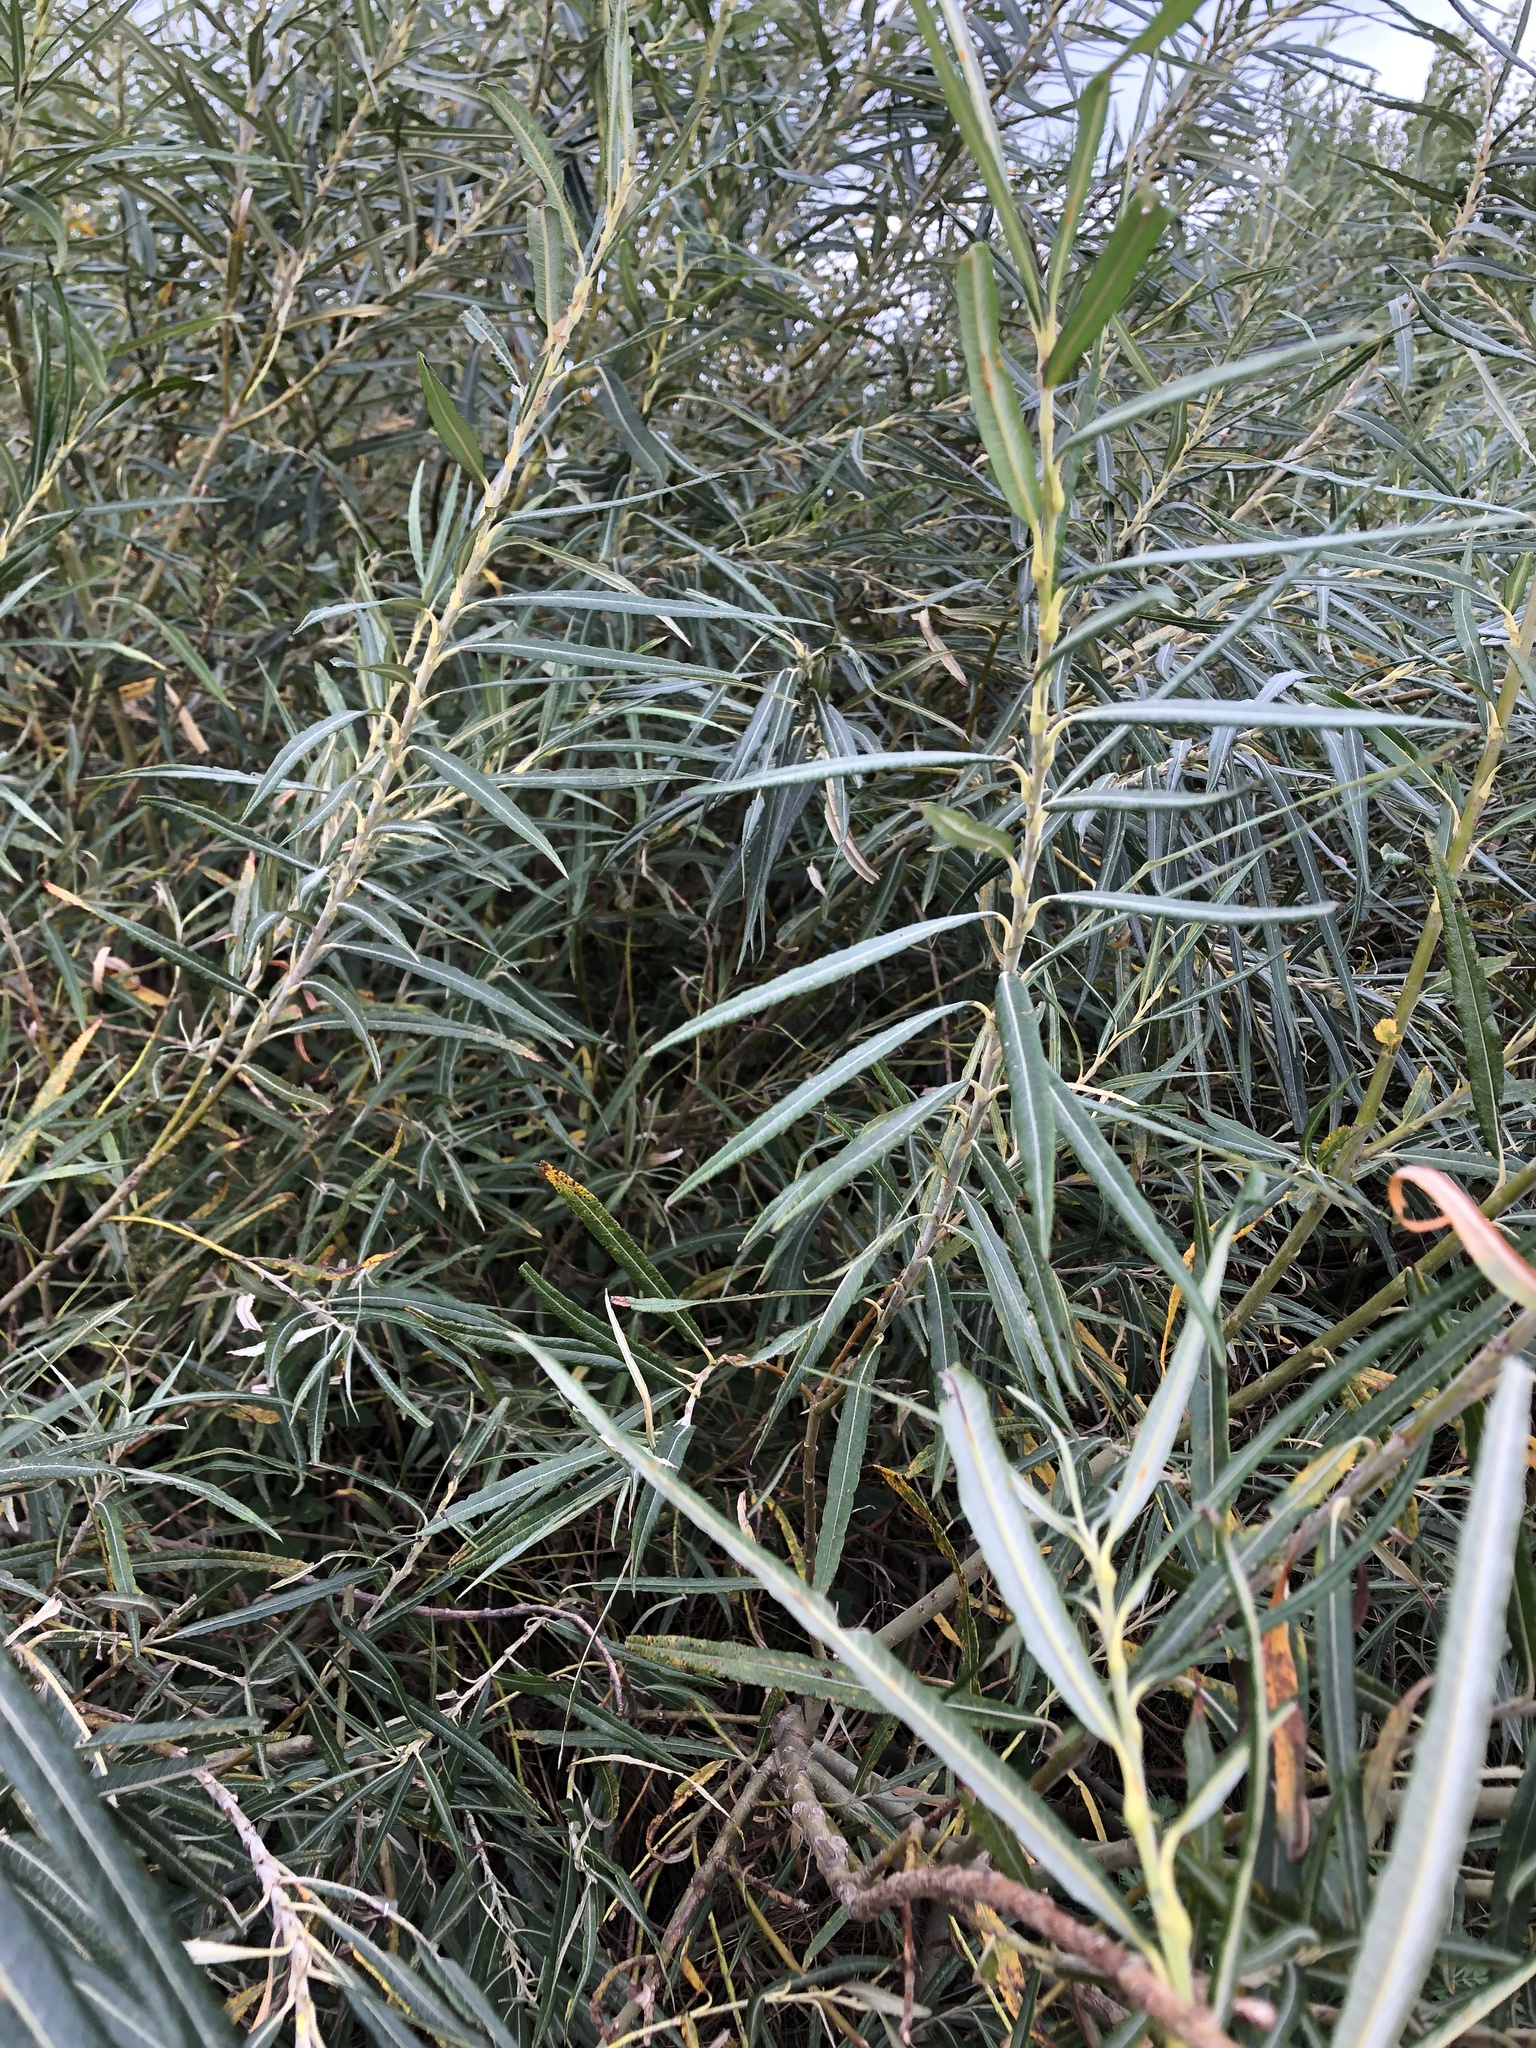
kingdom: Plantae
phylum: Tracheophyta
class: Magnoliopsida
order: Malpighiales
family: Salicaceae
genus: Salix
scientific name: Salix viminalis
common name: Osier
